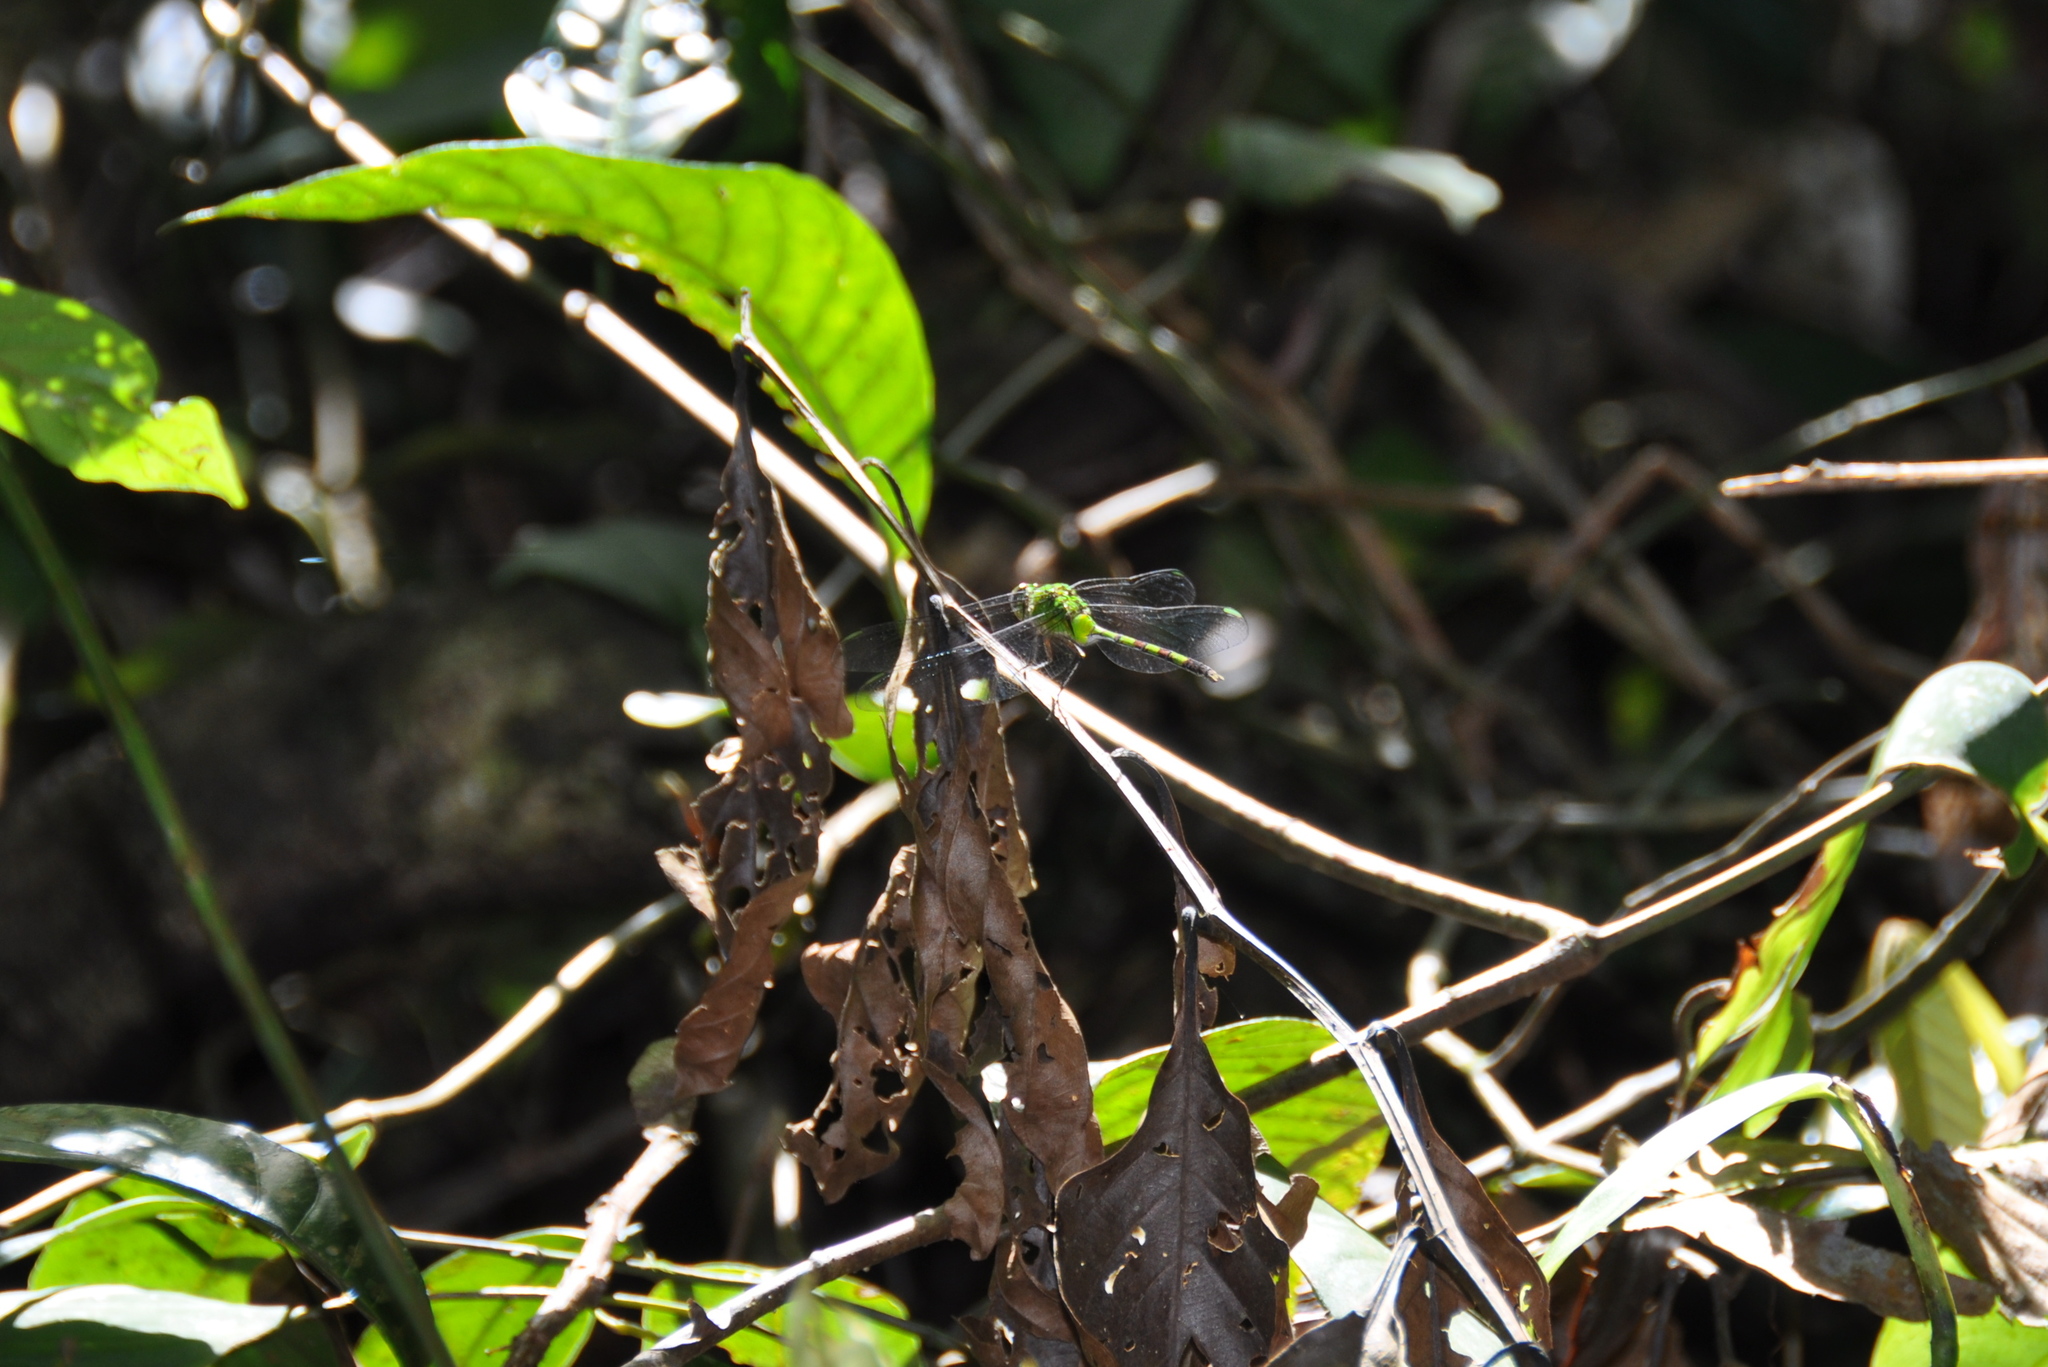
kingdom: Animalia
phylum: Arthropoda
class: Insecta
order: Odonata
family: Libellulidae
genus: Erythemis
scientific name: Erythemis vesiculosa
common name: Great pondhawk
